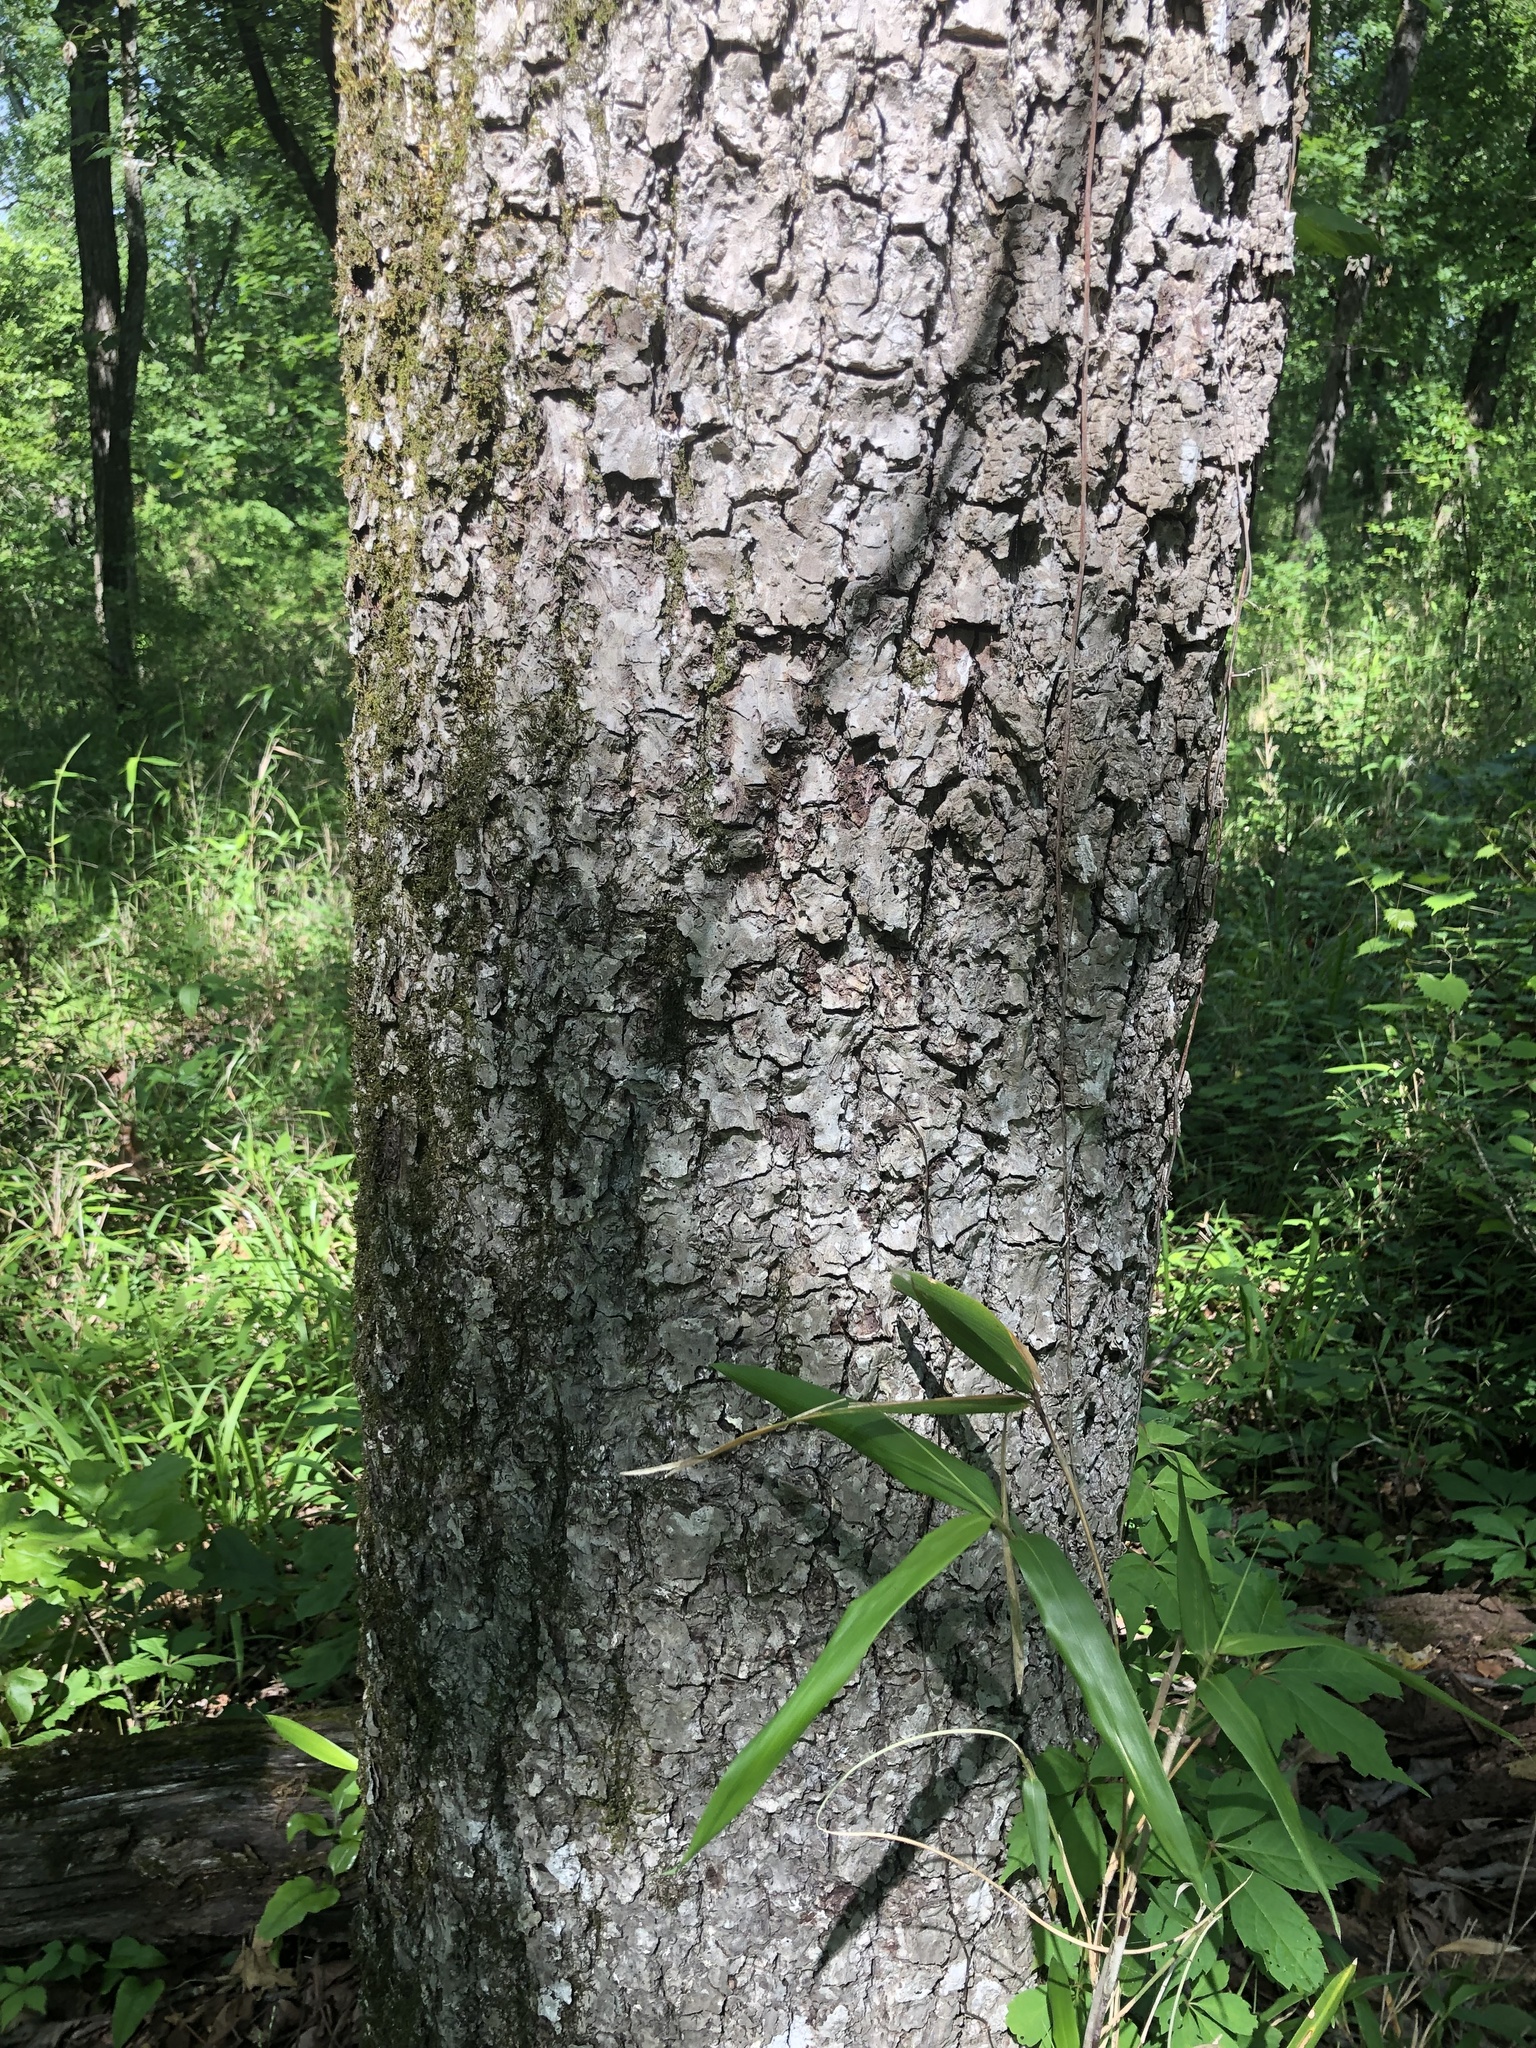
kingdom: Plantae
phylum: Tracheophyta
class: Magnoliopsida
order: Fagales
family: Juglandaceae
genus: Carya
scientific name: Carya alba
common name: Mockernut hickory
